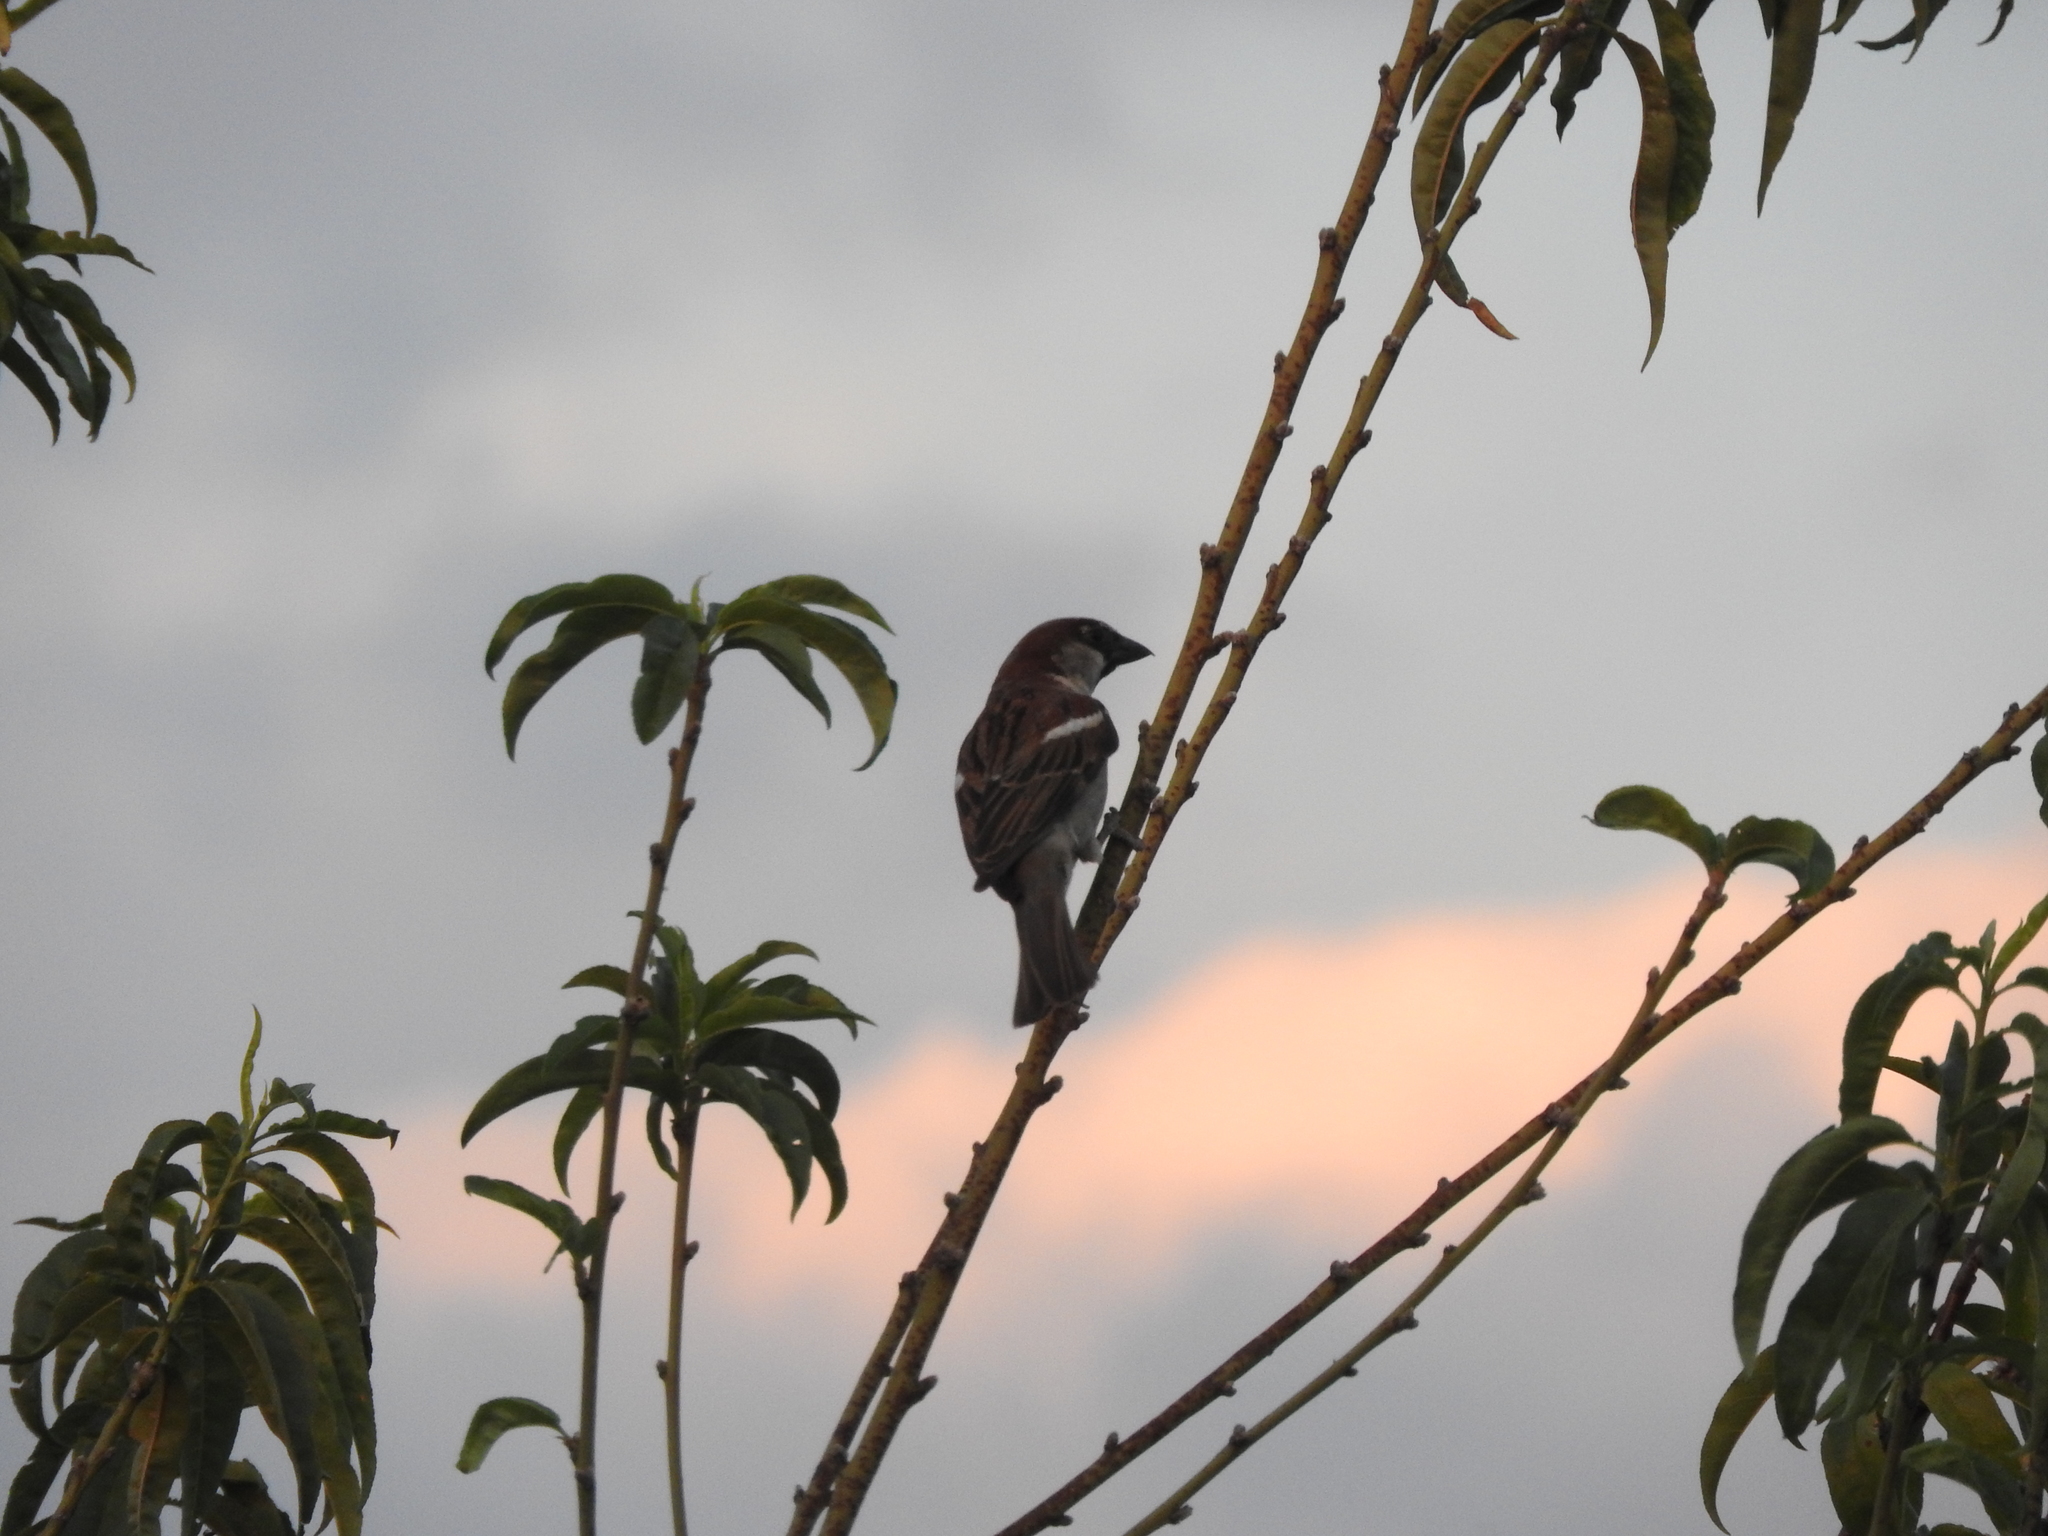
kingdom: Animalia
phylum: Chordata
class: Aves
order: Passeriformes
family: Passeridae
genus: Passer
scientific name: Passer domesticus
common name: House sparrow
